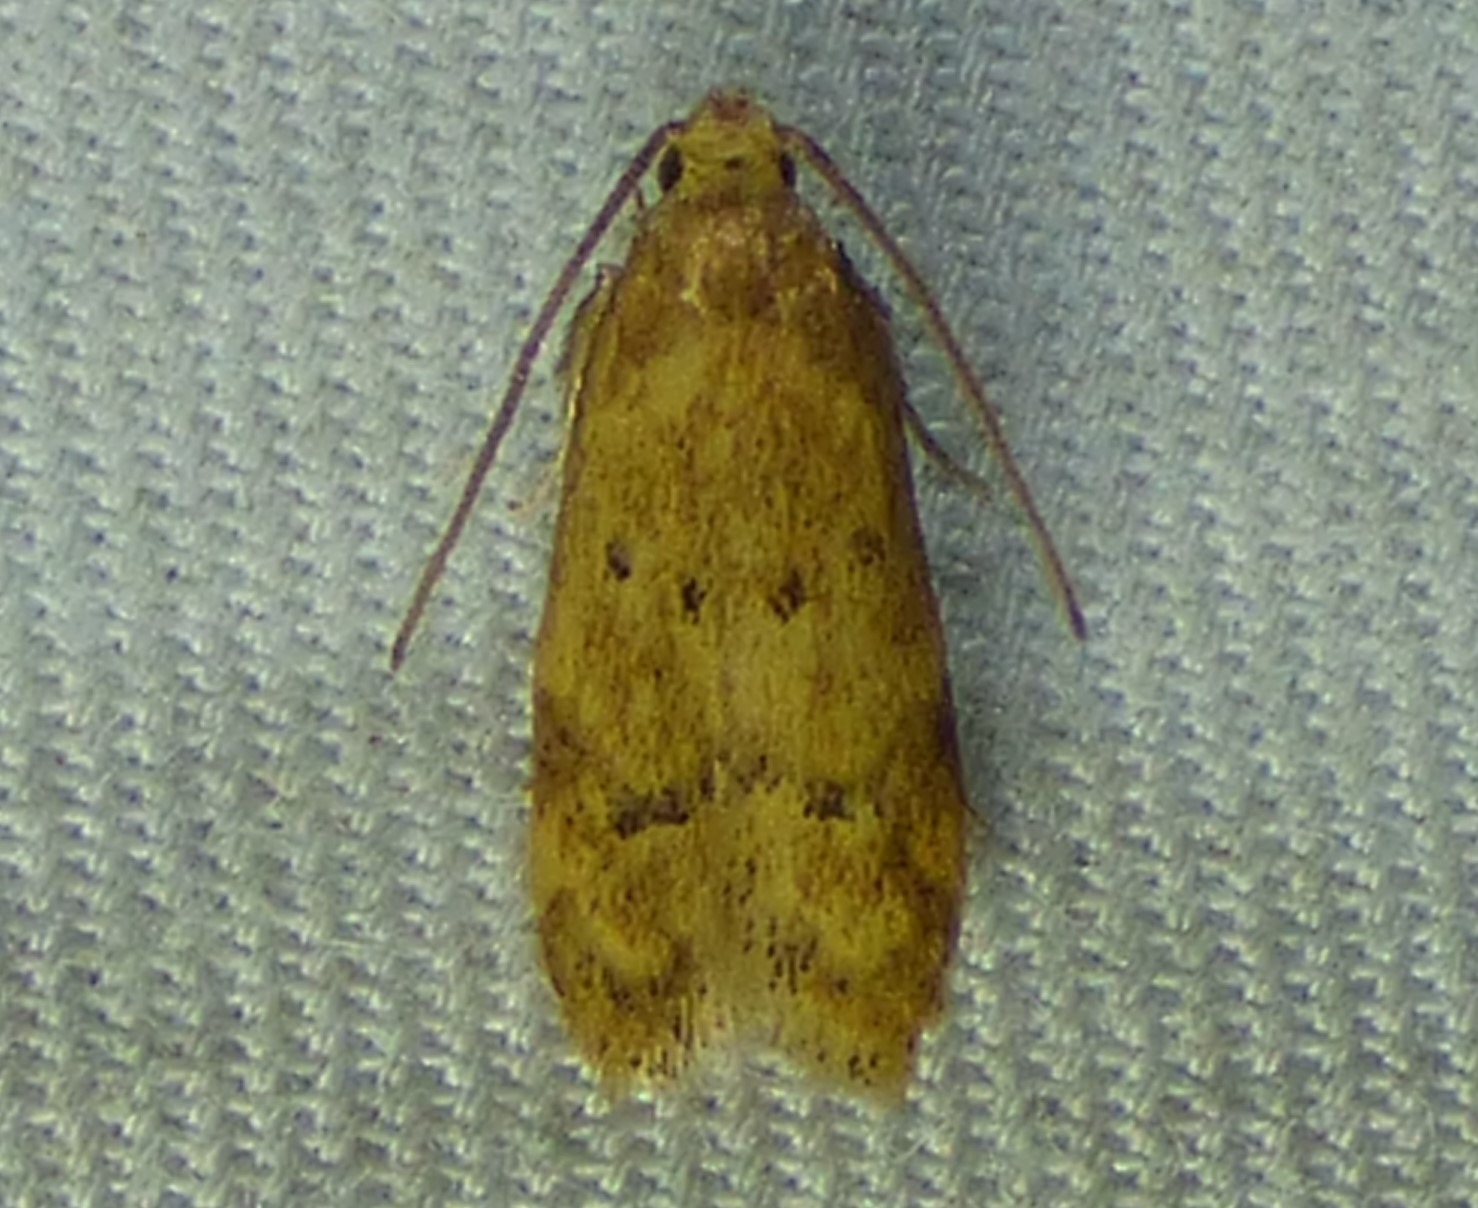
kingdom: Animalia
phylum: Arthropoda
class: Insecta
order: Lepidoptera
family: Autostichidae
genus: Gerdana
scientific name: Gerdana caritella
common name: Gerdana moth
